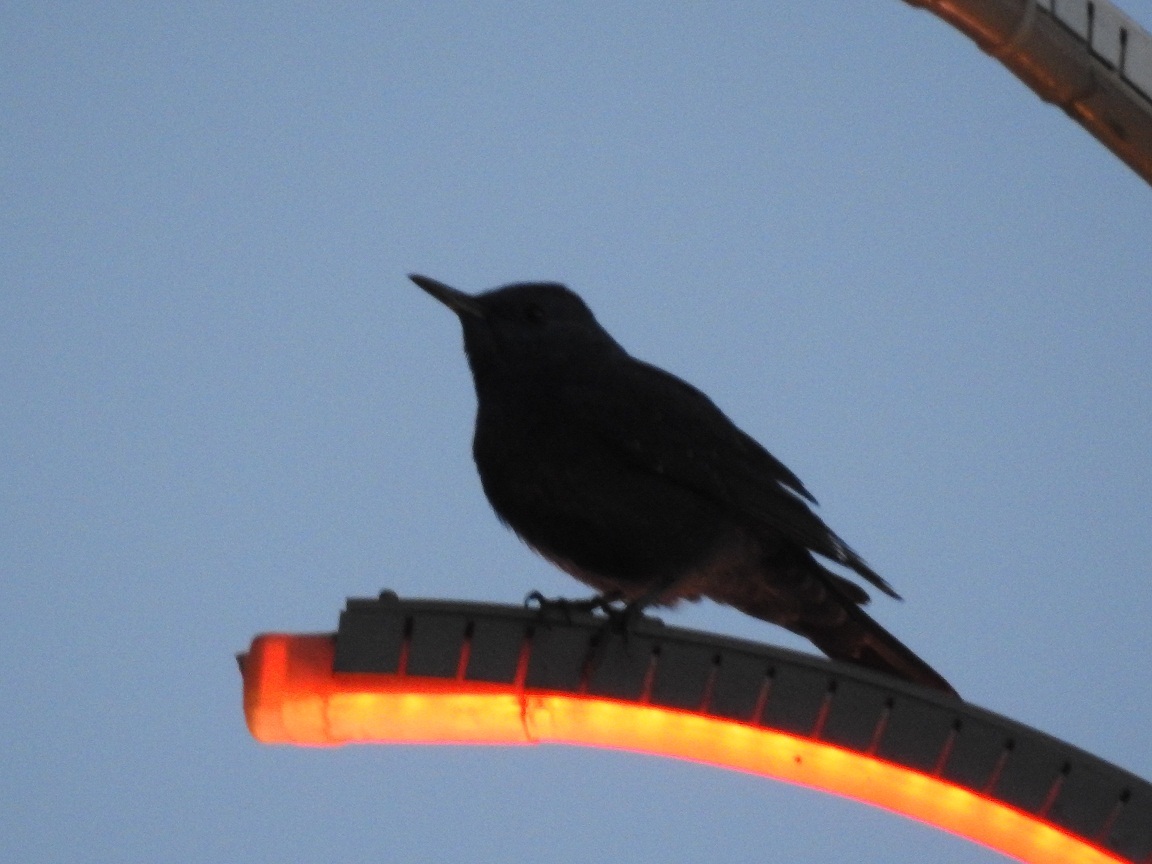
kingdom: Animalia
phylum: Chordata
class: Aves
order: Passeriformes
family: Muscicapidae
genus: Monticola
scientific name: Monticola solitarius
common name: Blue rock thrush
